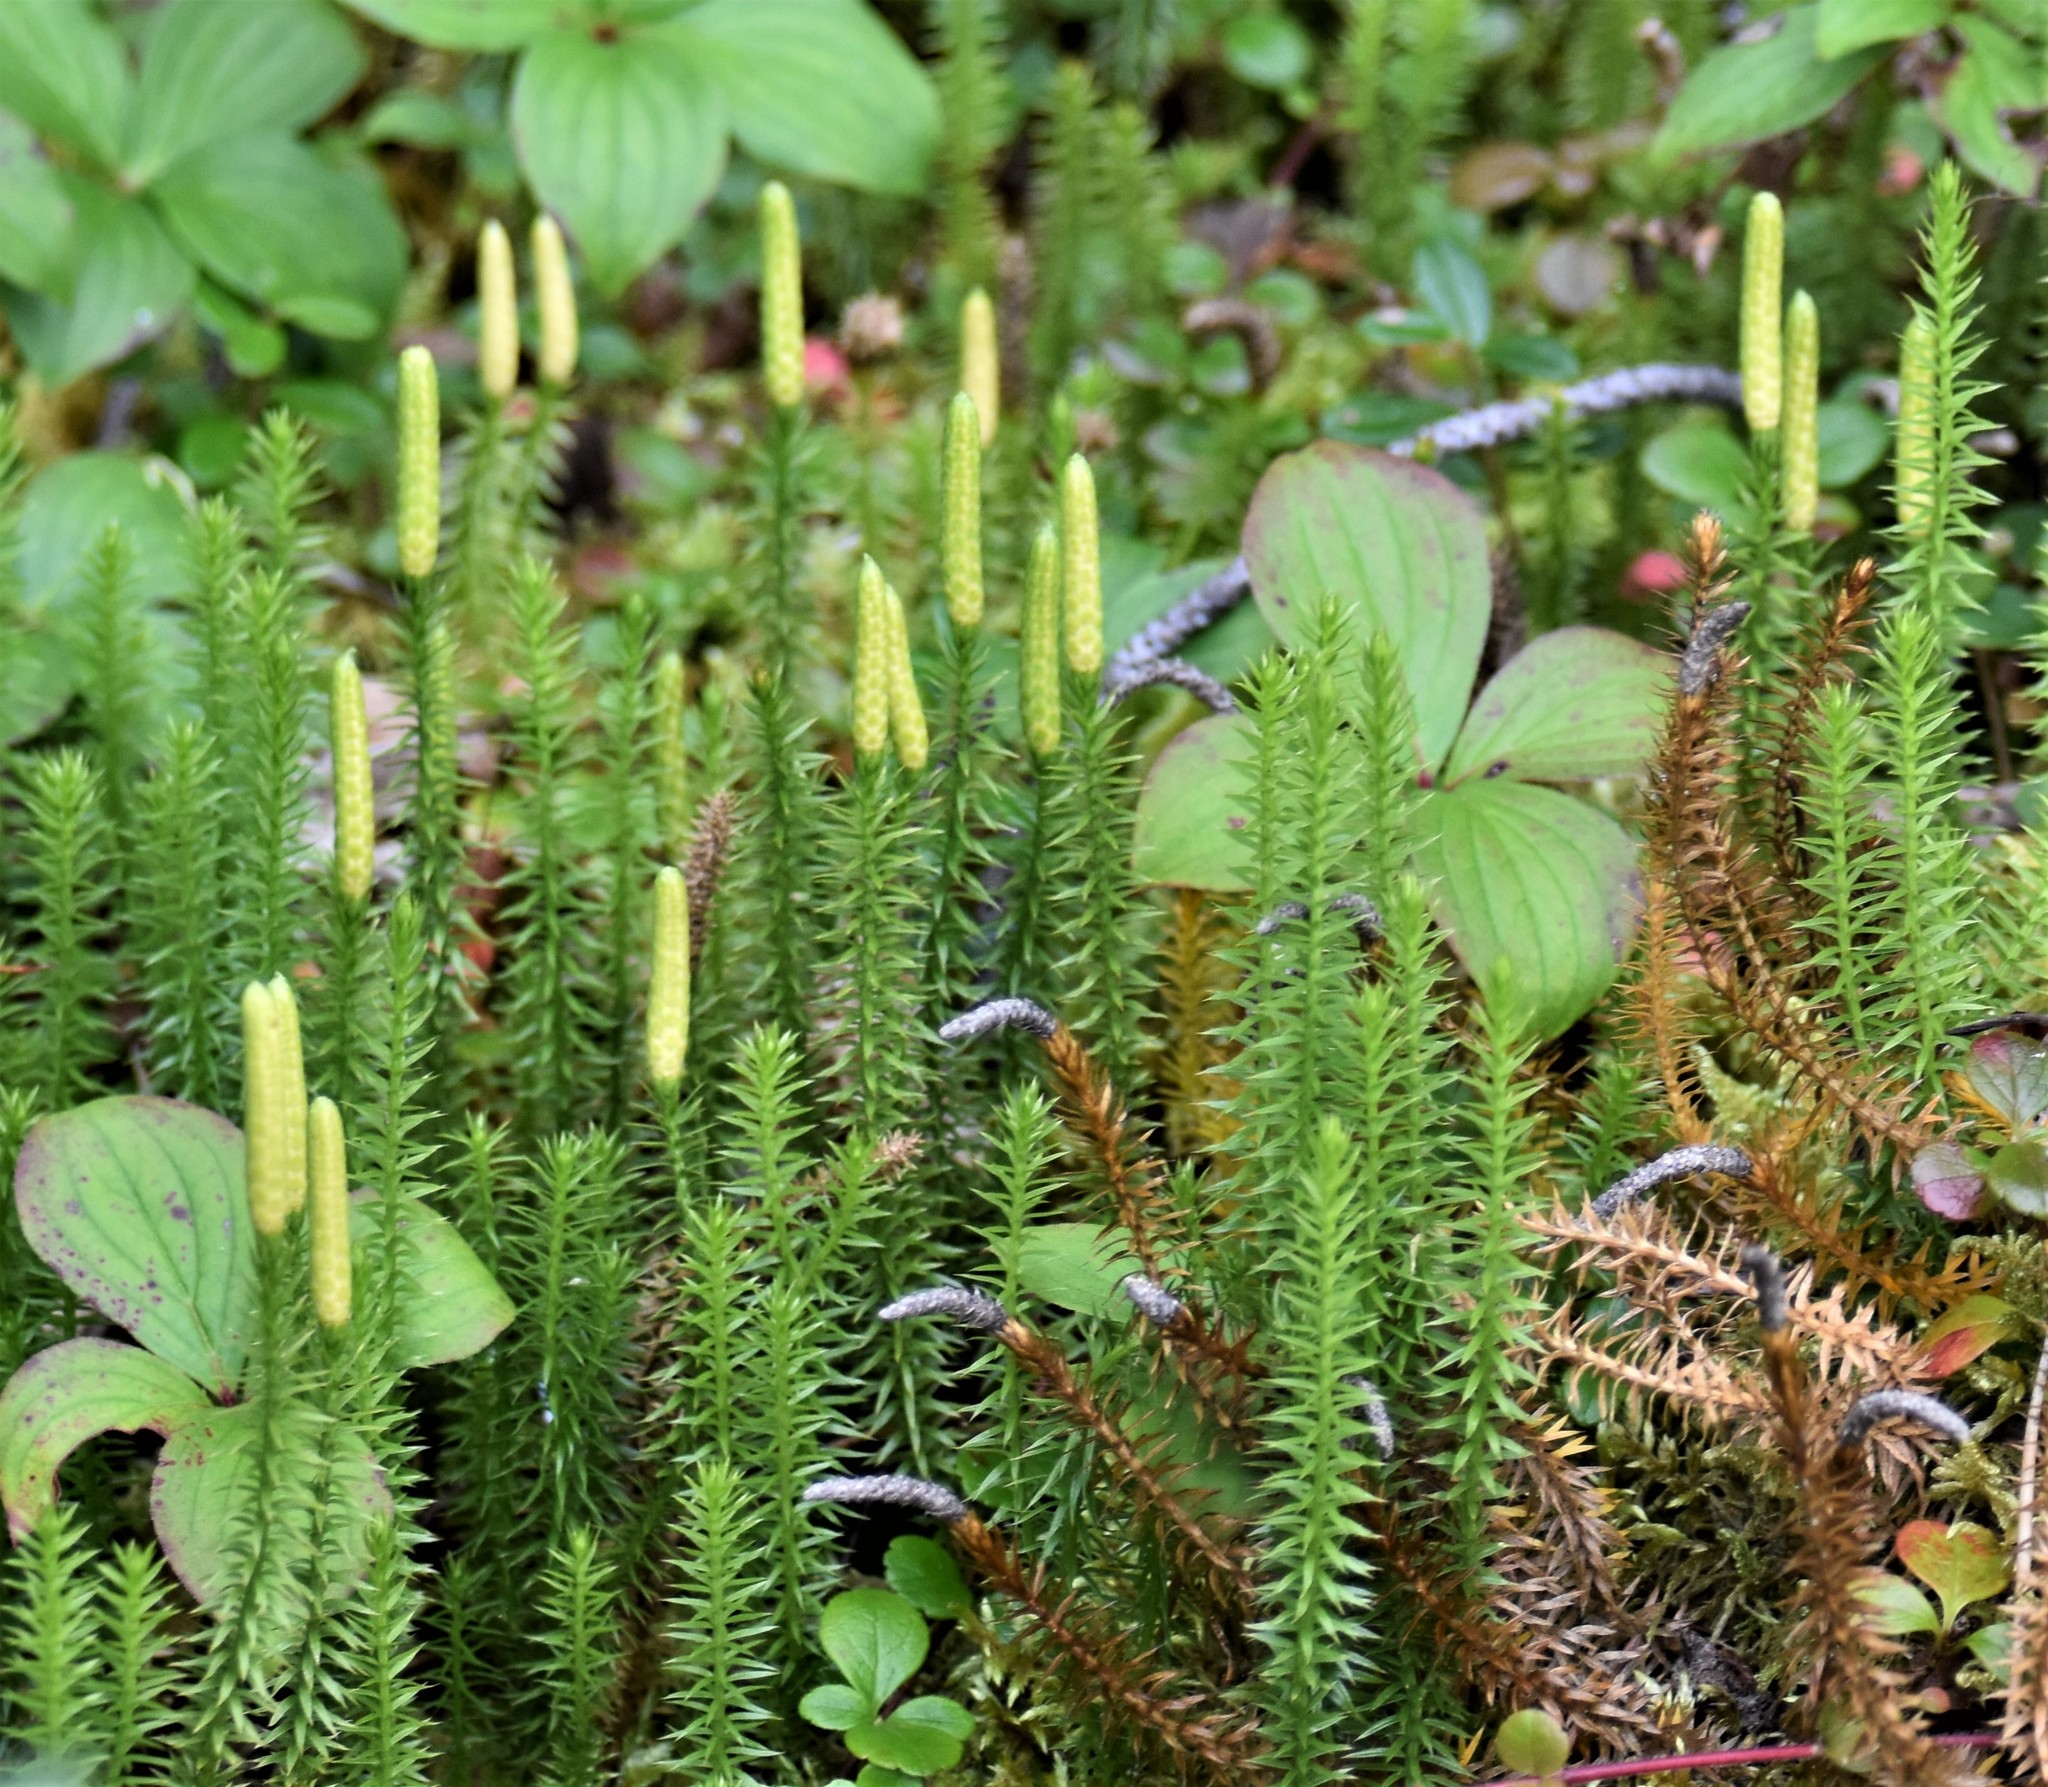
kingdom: Plantae
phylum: Tracheophyta
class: Lycopodiopsida
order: Lycopodiales
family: Lycopodiaceae
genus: Spinulum
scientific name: Spinulum annotinum
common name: Interrupted club-moss
